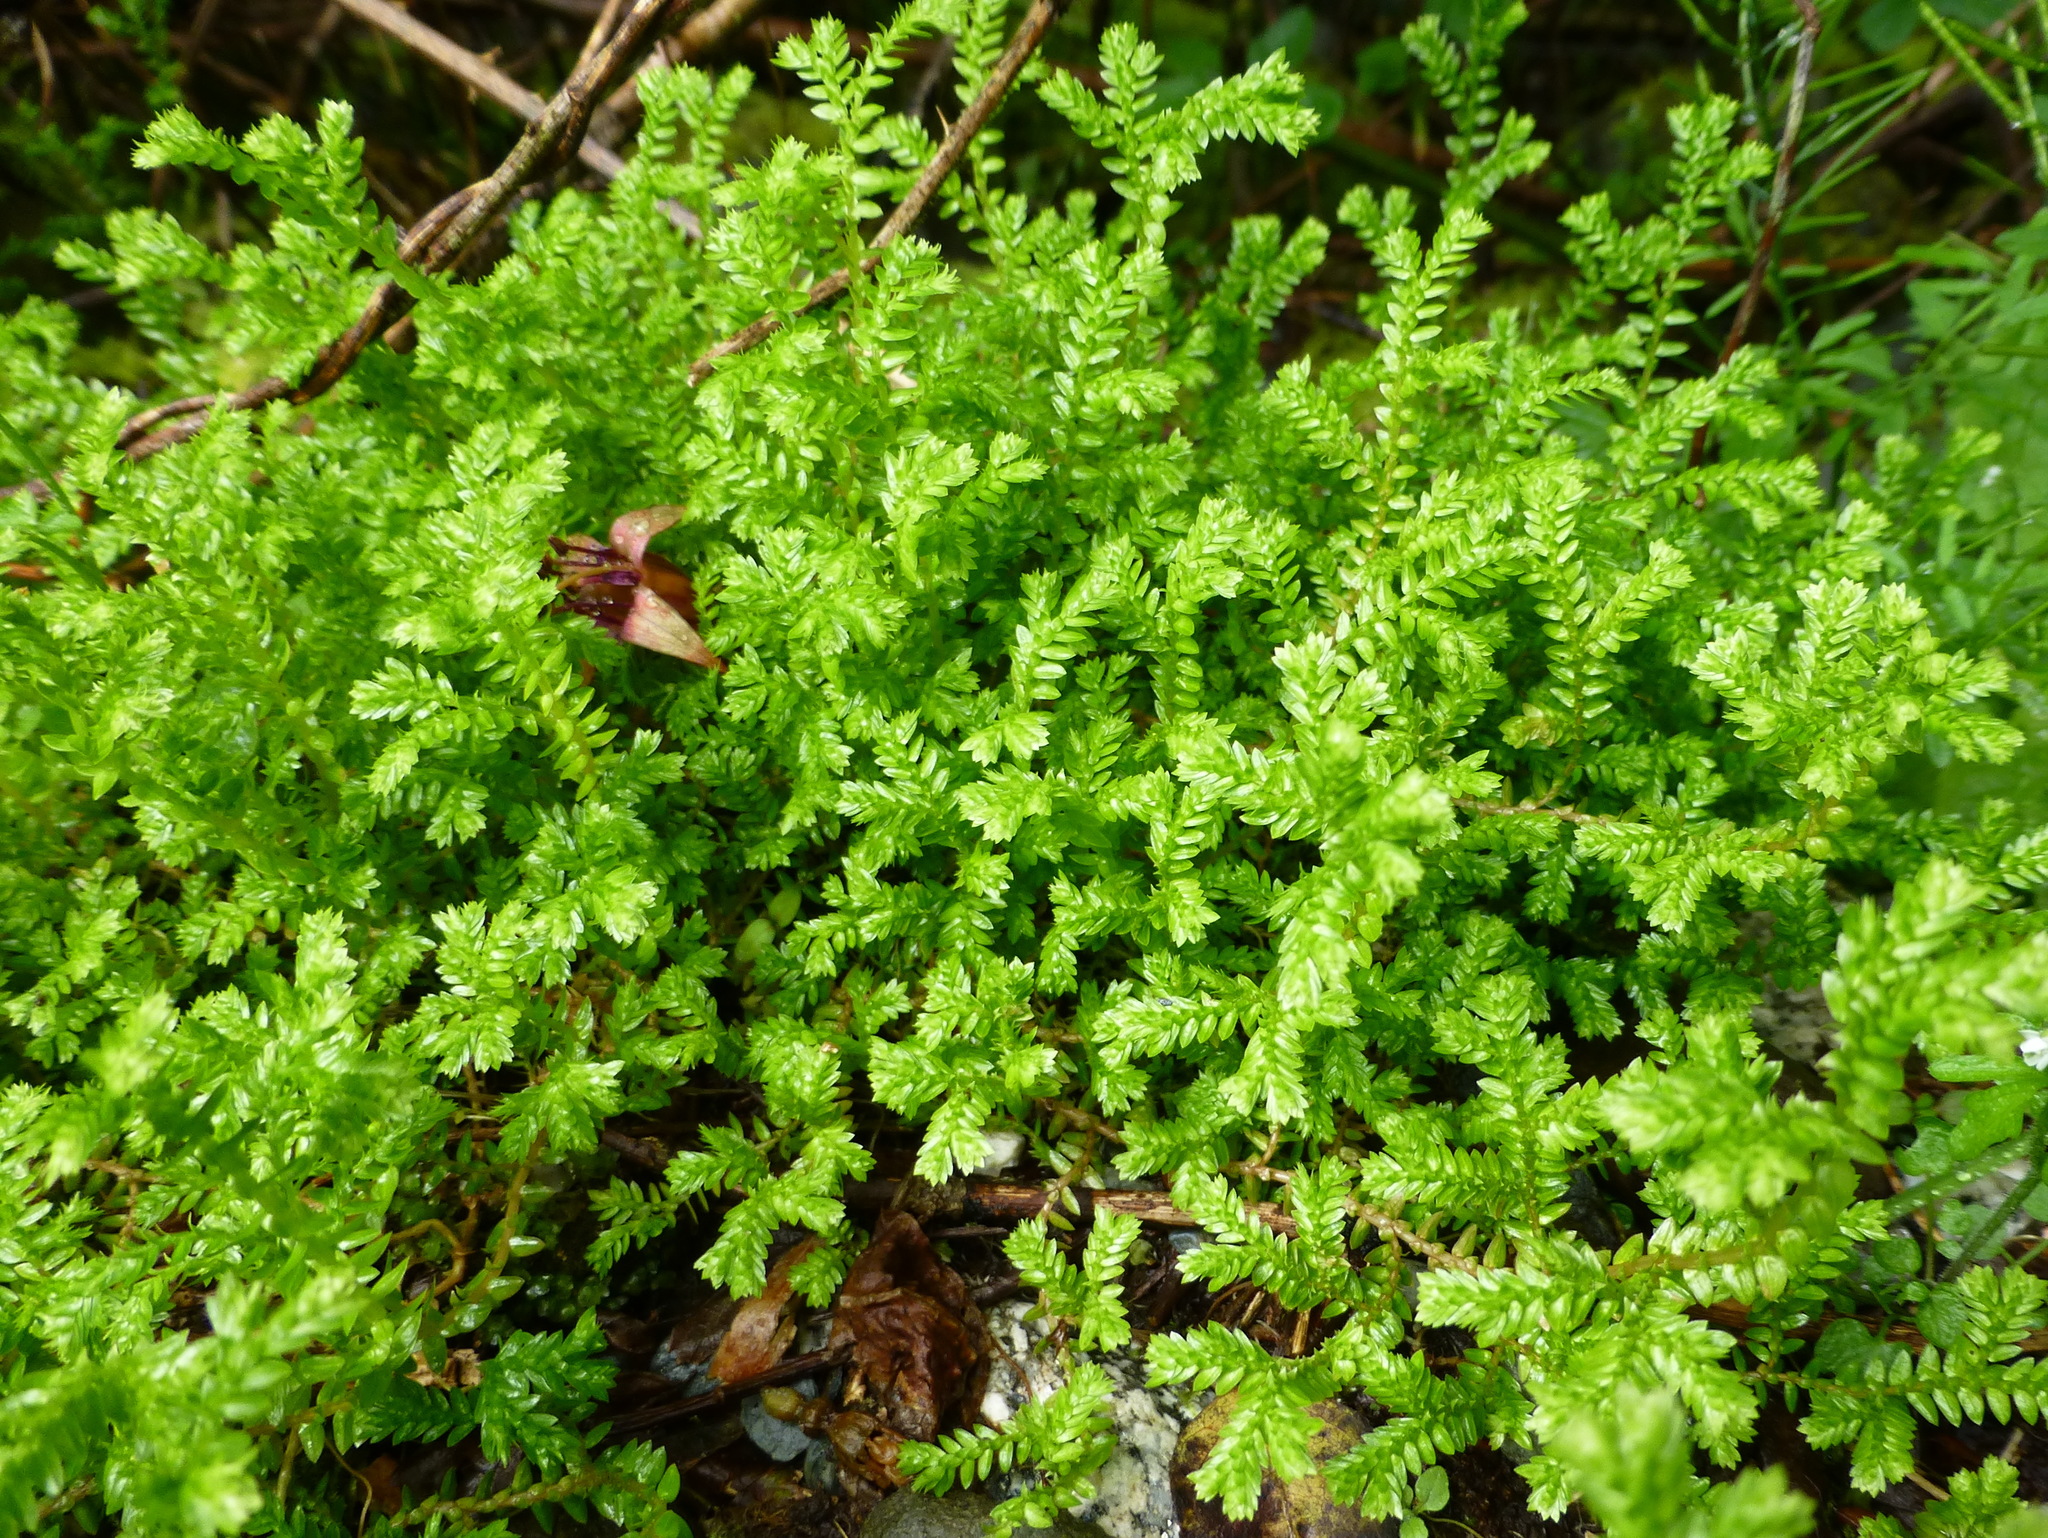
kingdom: Plantae
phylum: Tracheophyta
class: Lycopodiopsida
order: Selaginellales
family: Selaginellaceae
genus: Selaginella
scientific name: Selaginella kraussiana
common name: Krauss' spikemoss
